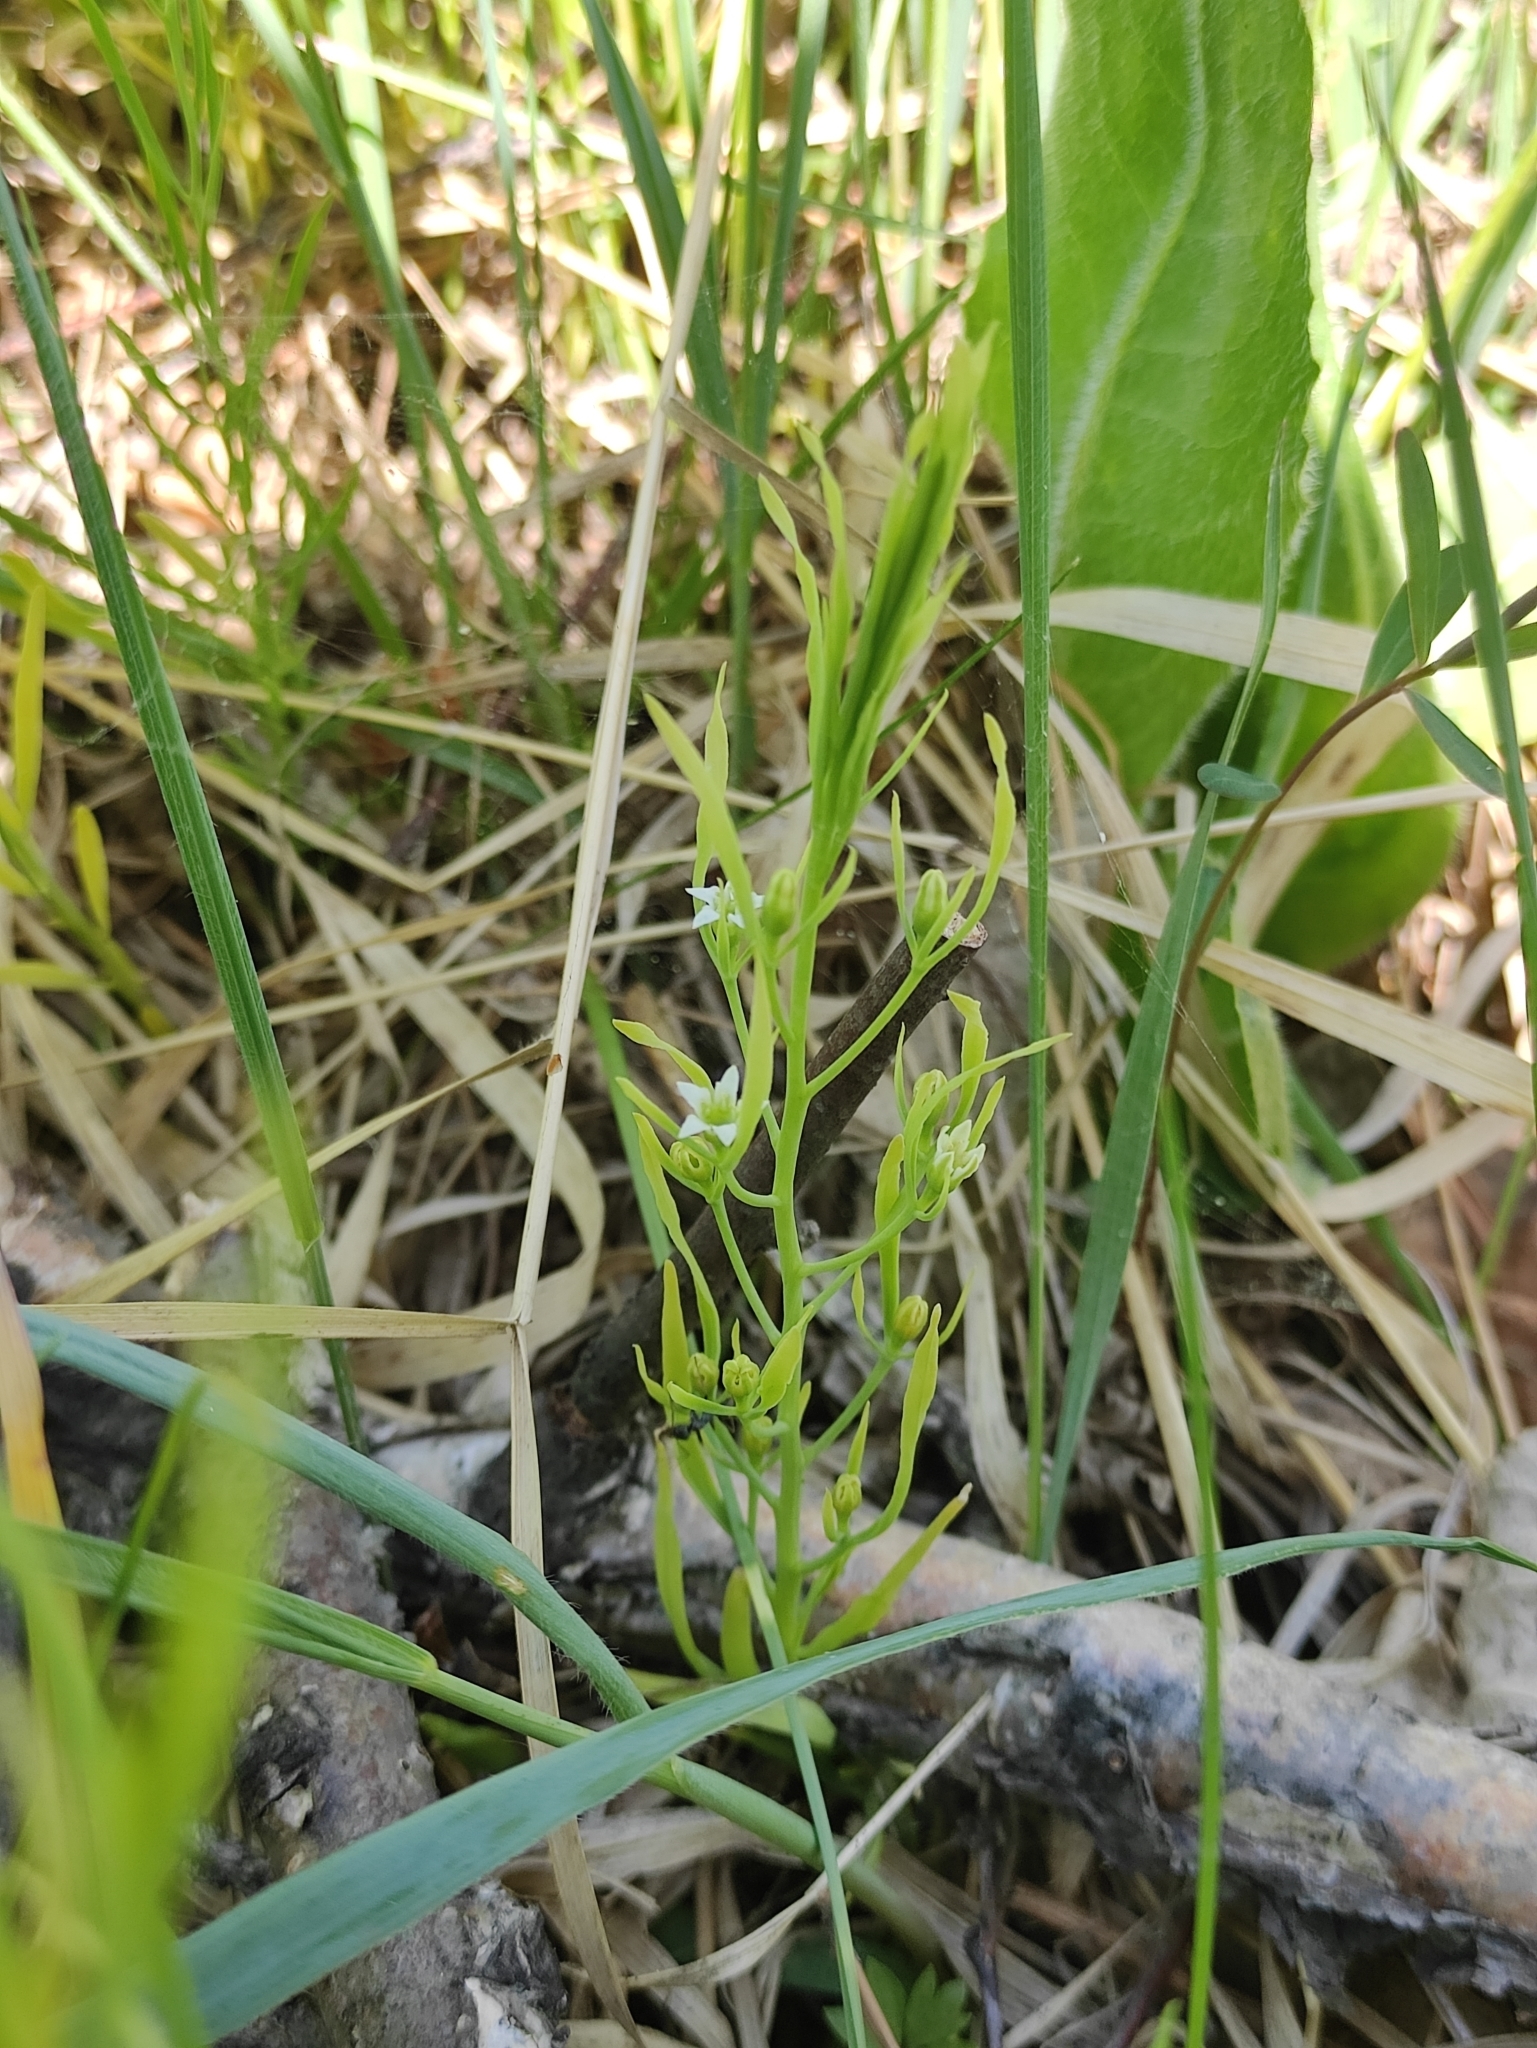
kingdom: Plantae
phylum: Tracheophyta
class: Magnoliopsida
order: Santalales
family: Thesiaceae
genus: Thesium
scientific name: Thesium repens
